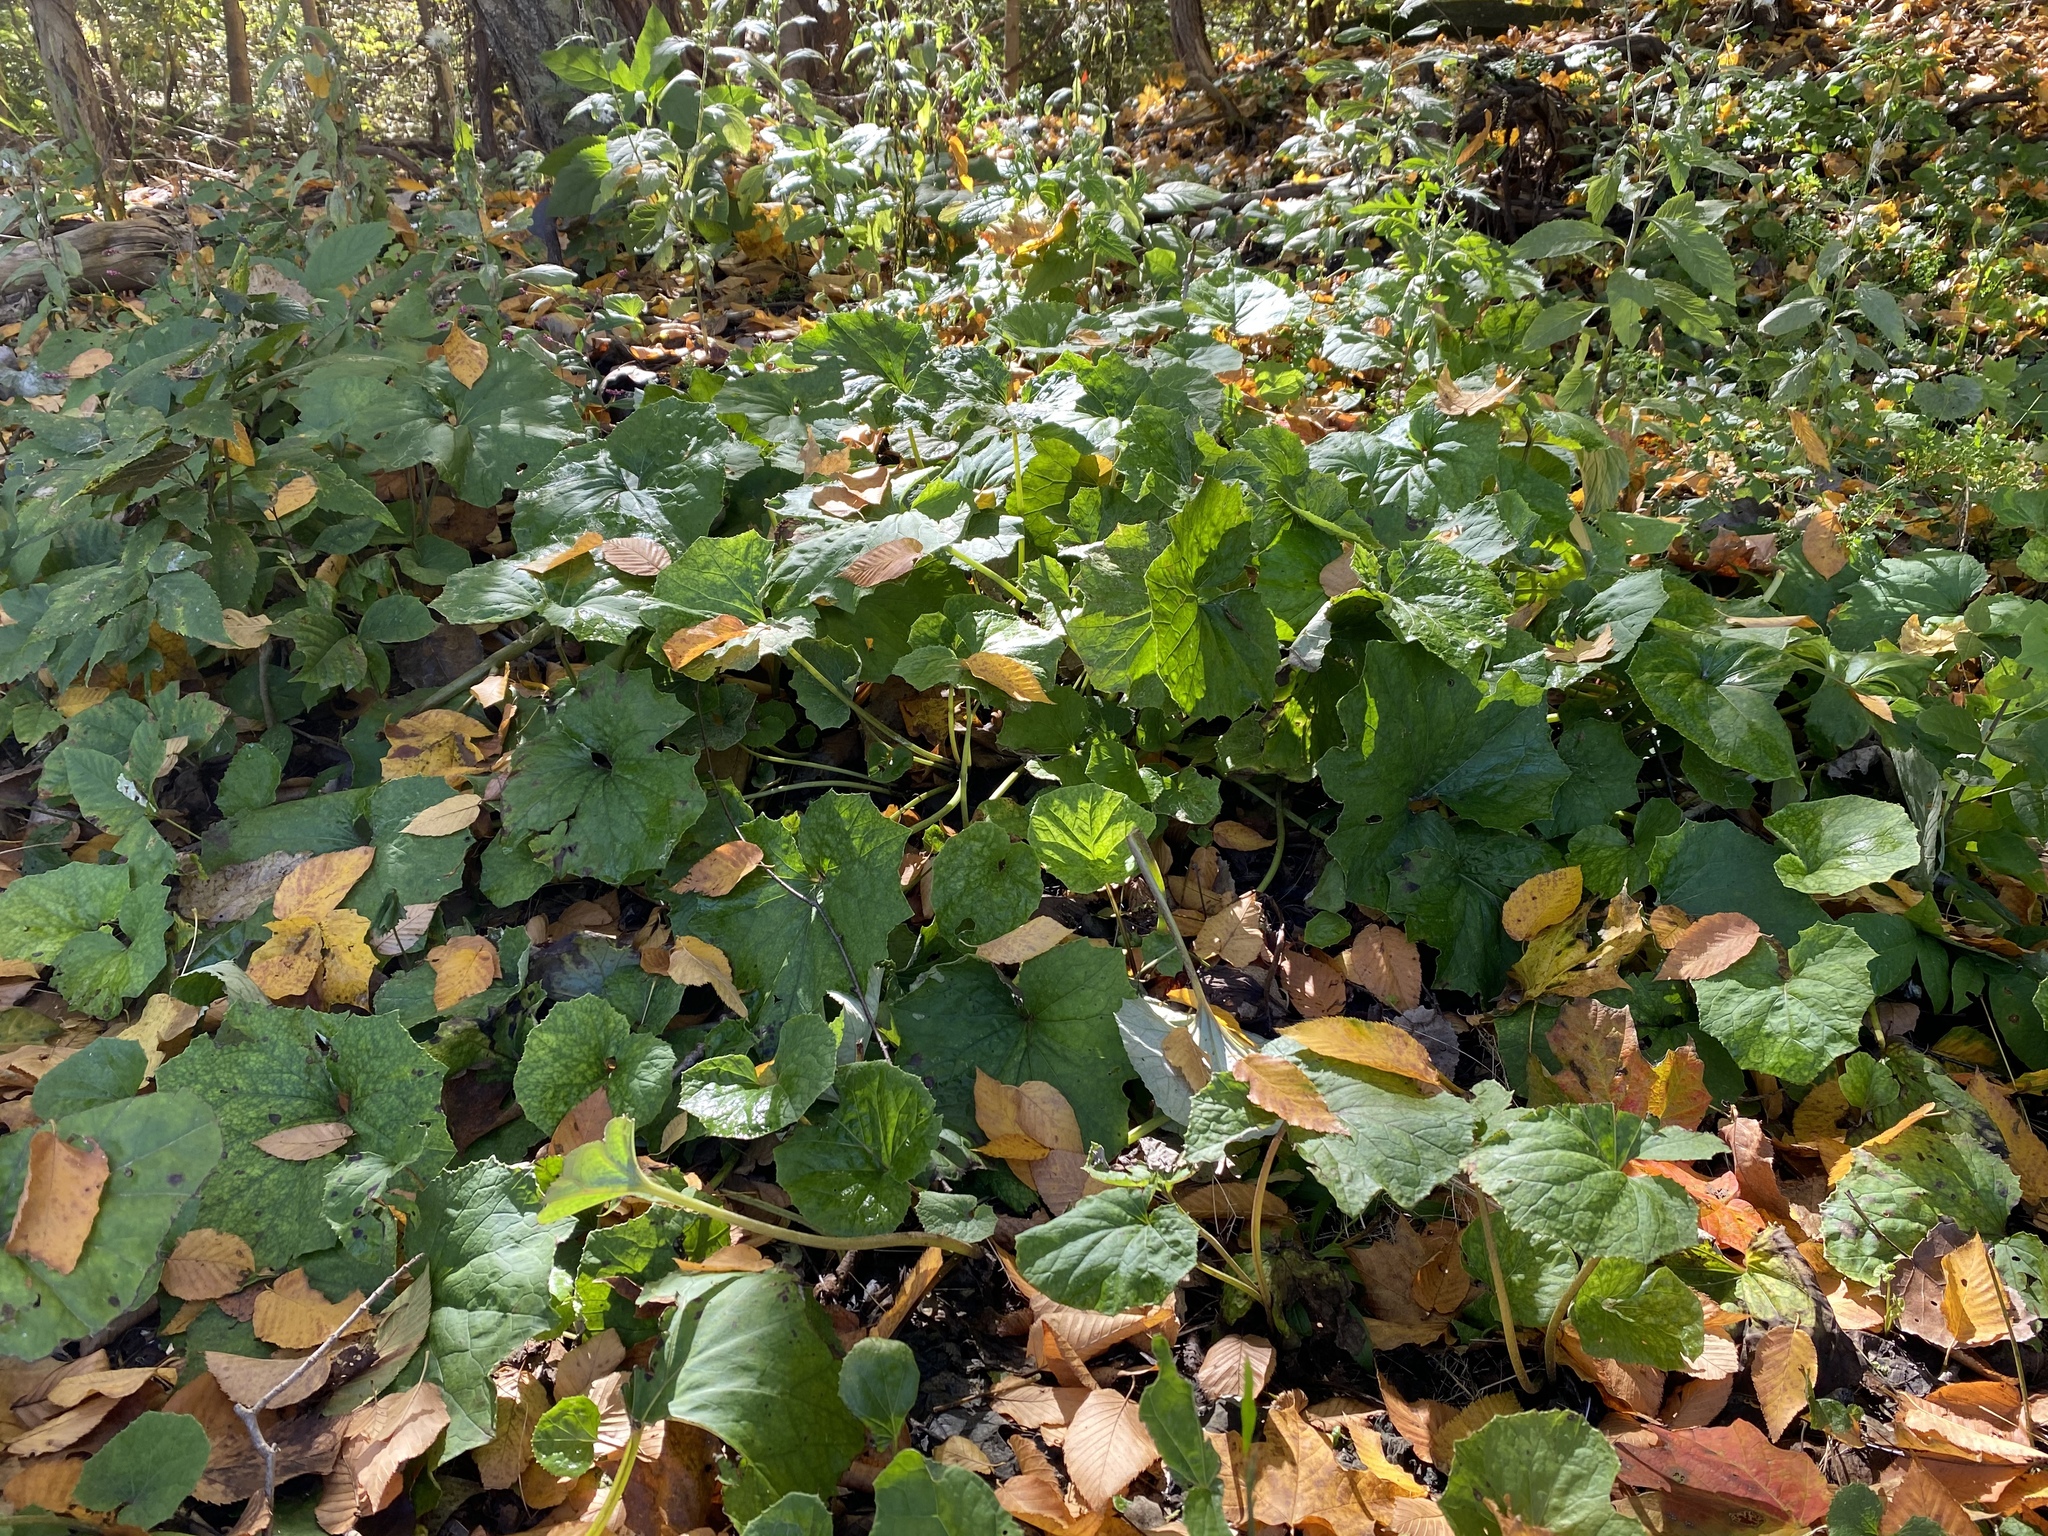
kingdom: Plantae
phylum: Tracheophyta
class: Magnoliopsida
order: Asterales
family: Asteraceae
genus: Tussilago
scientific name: Tussilago farfara
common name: Coltsfoot
